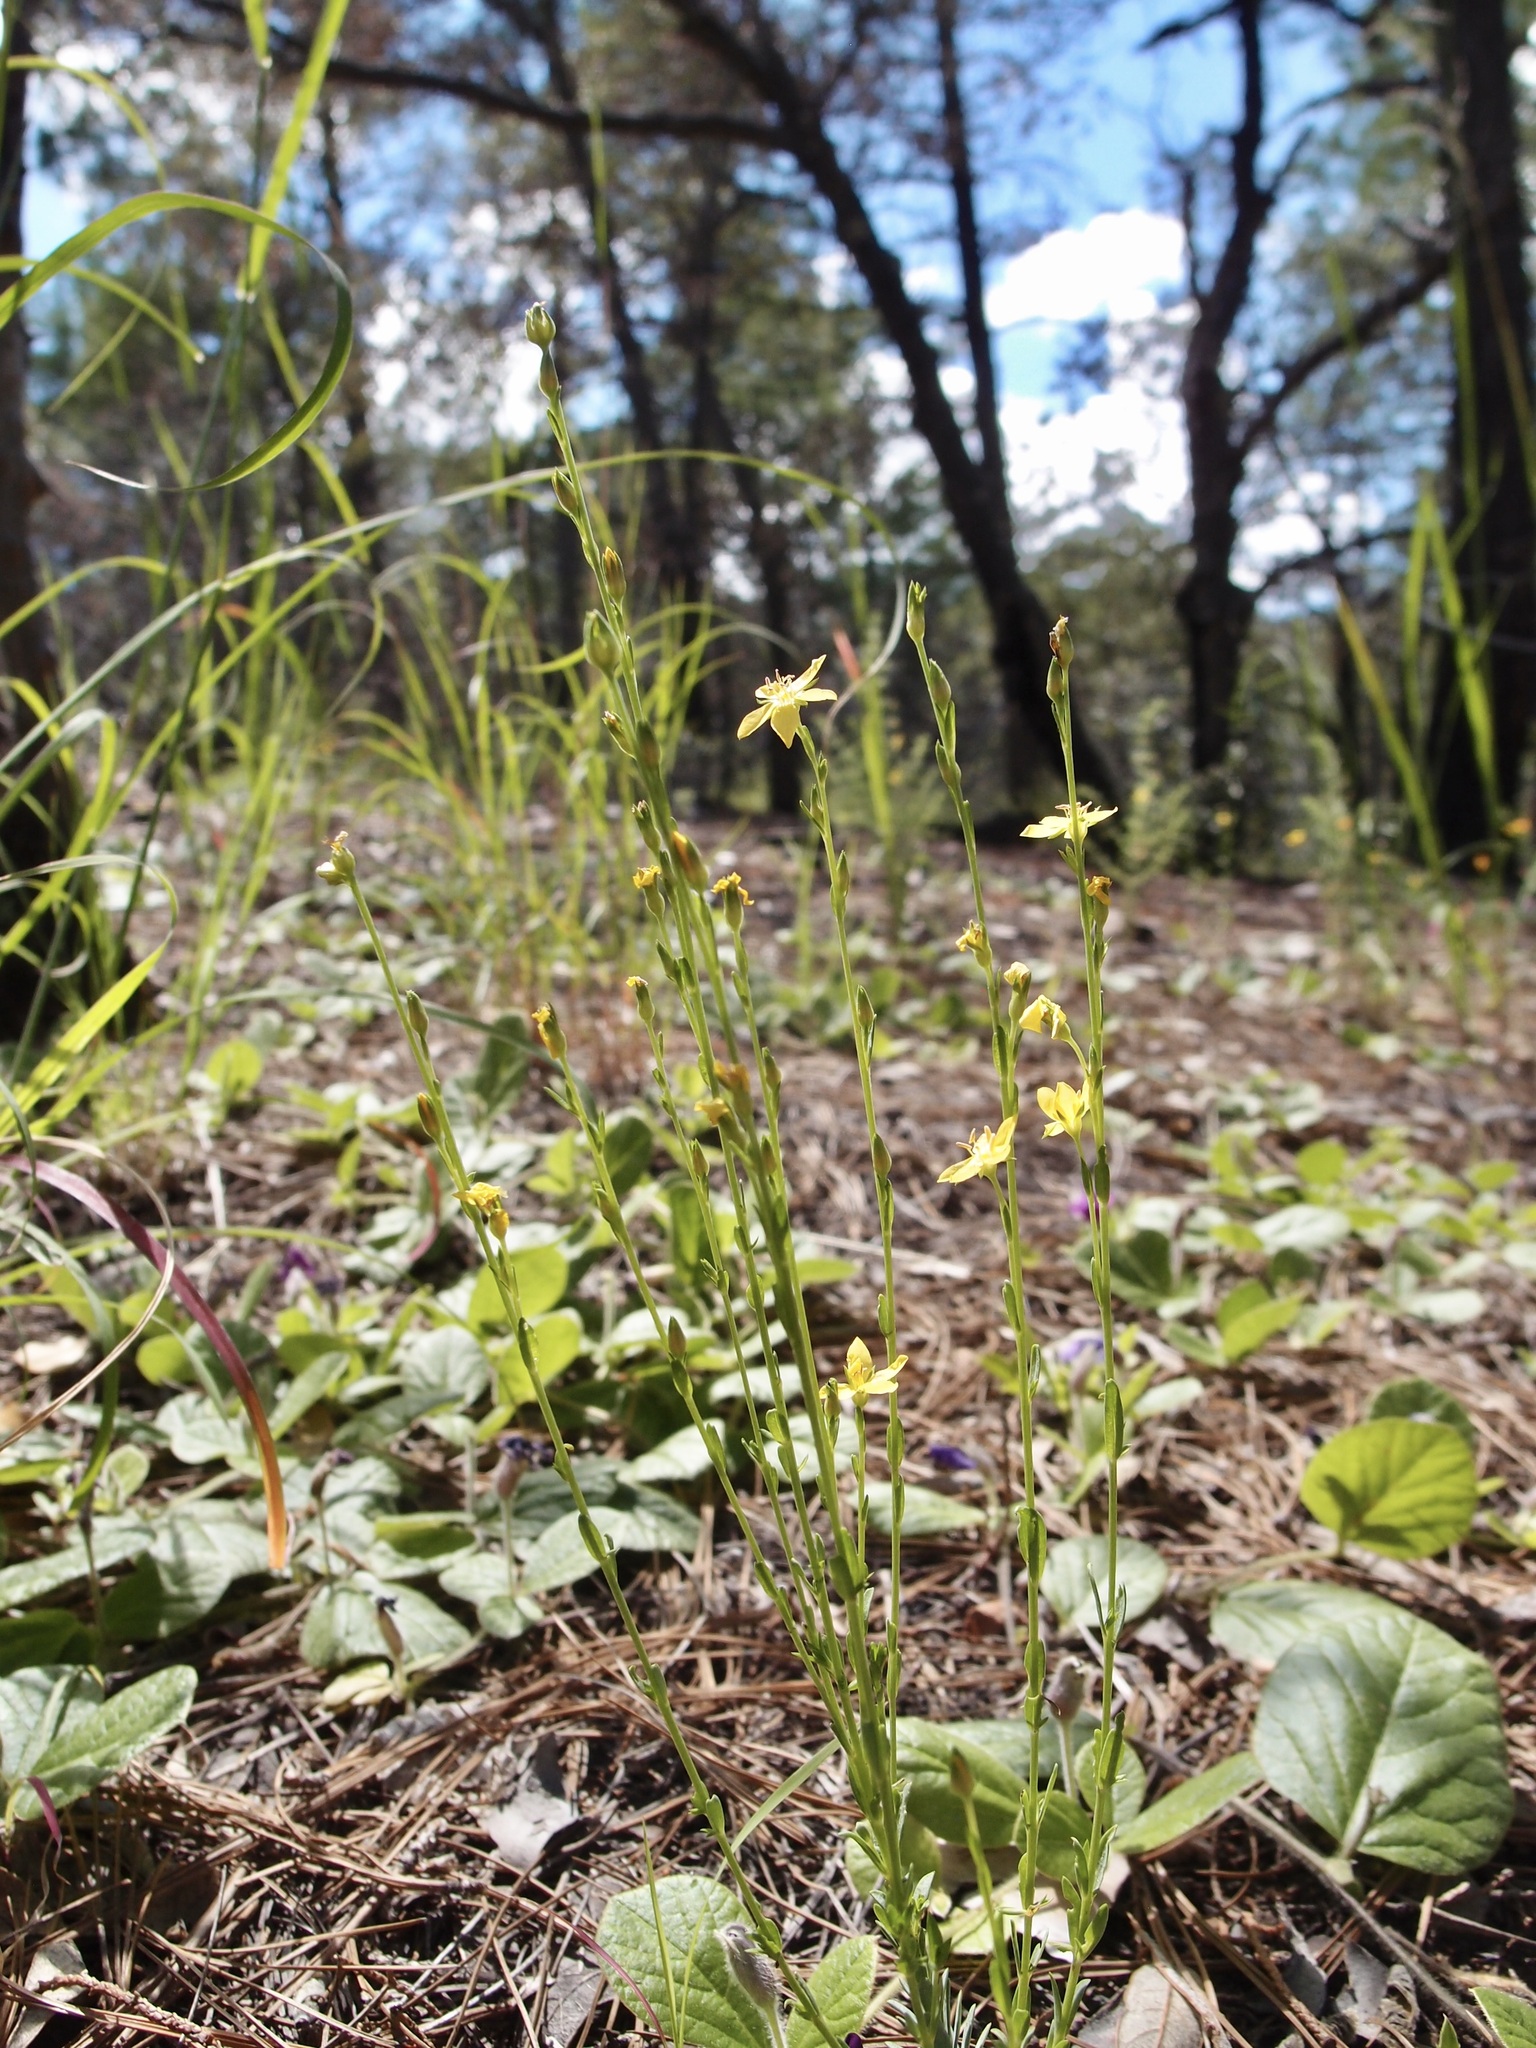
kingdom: Plantae
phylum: Tracheophyta
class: Magnoliopsida
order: Malpighiales
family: Linaceae
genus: Linum
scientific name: Linum neomexicanum
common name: New mexico yellow flax
